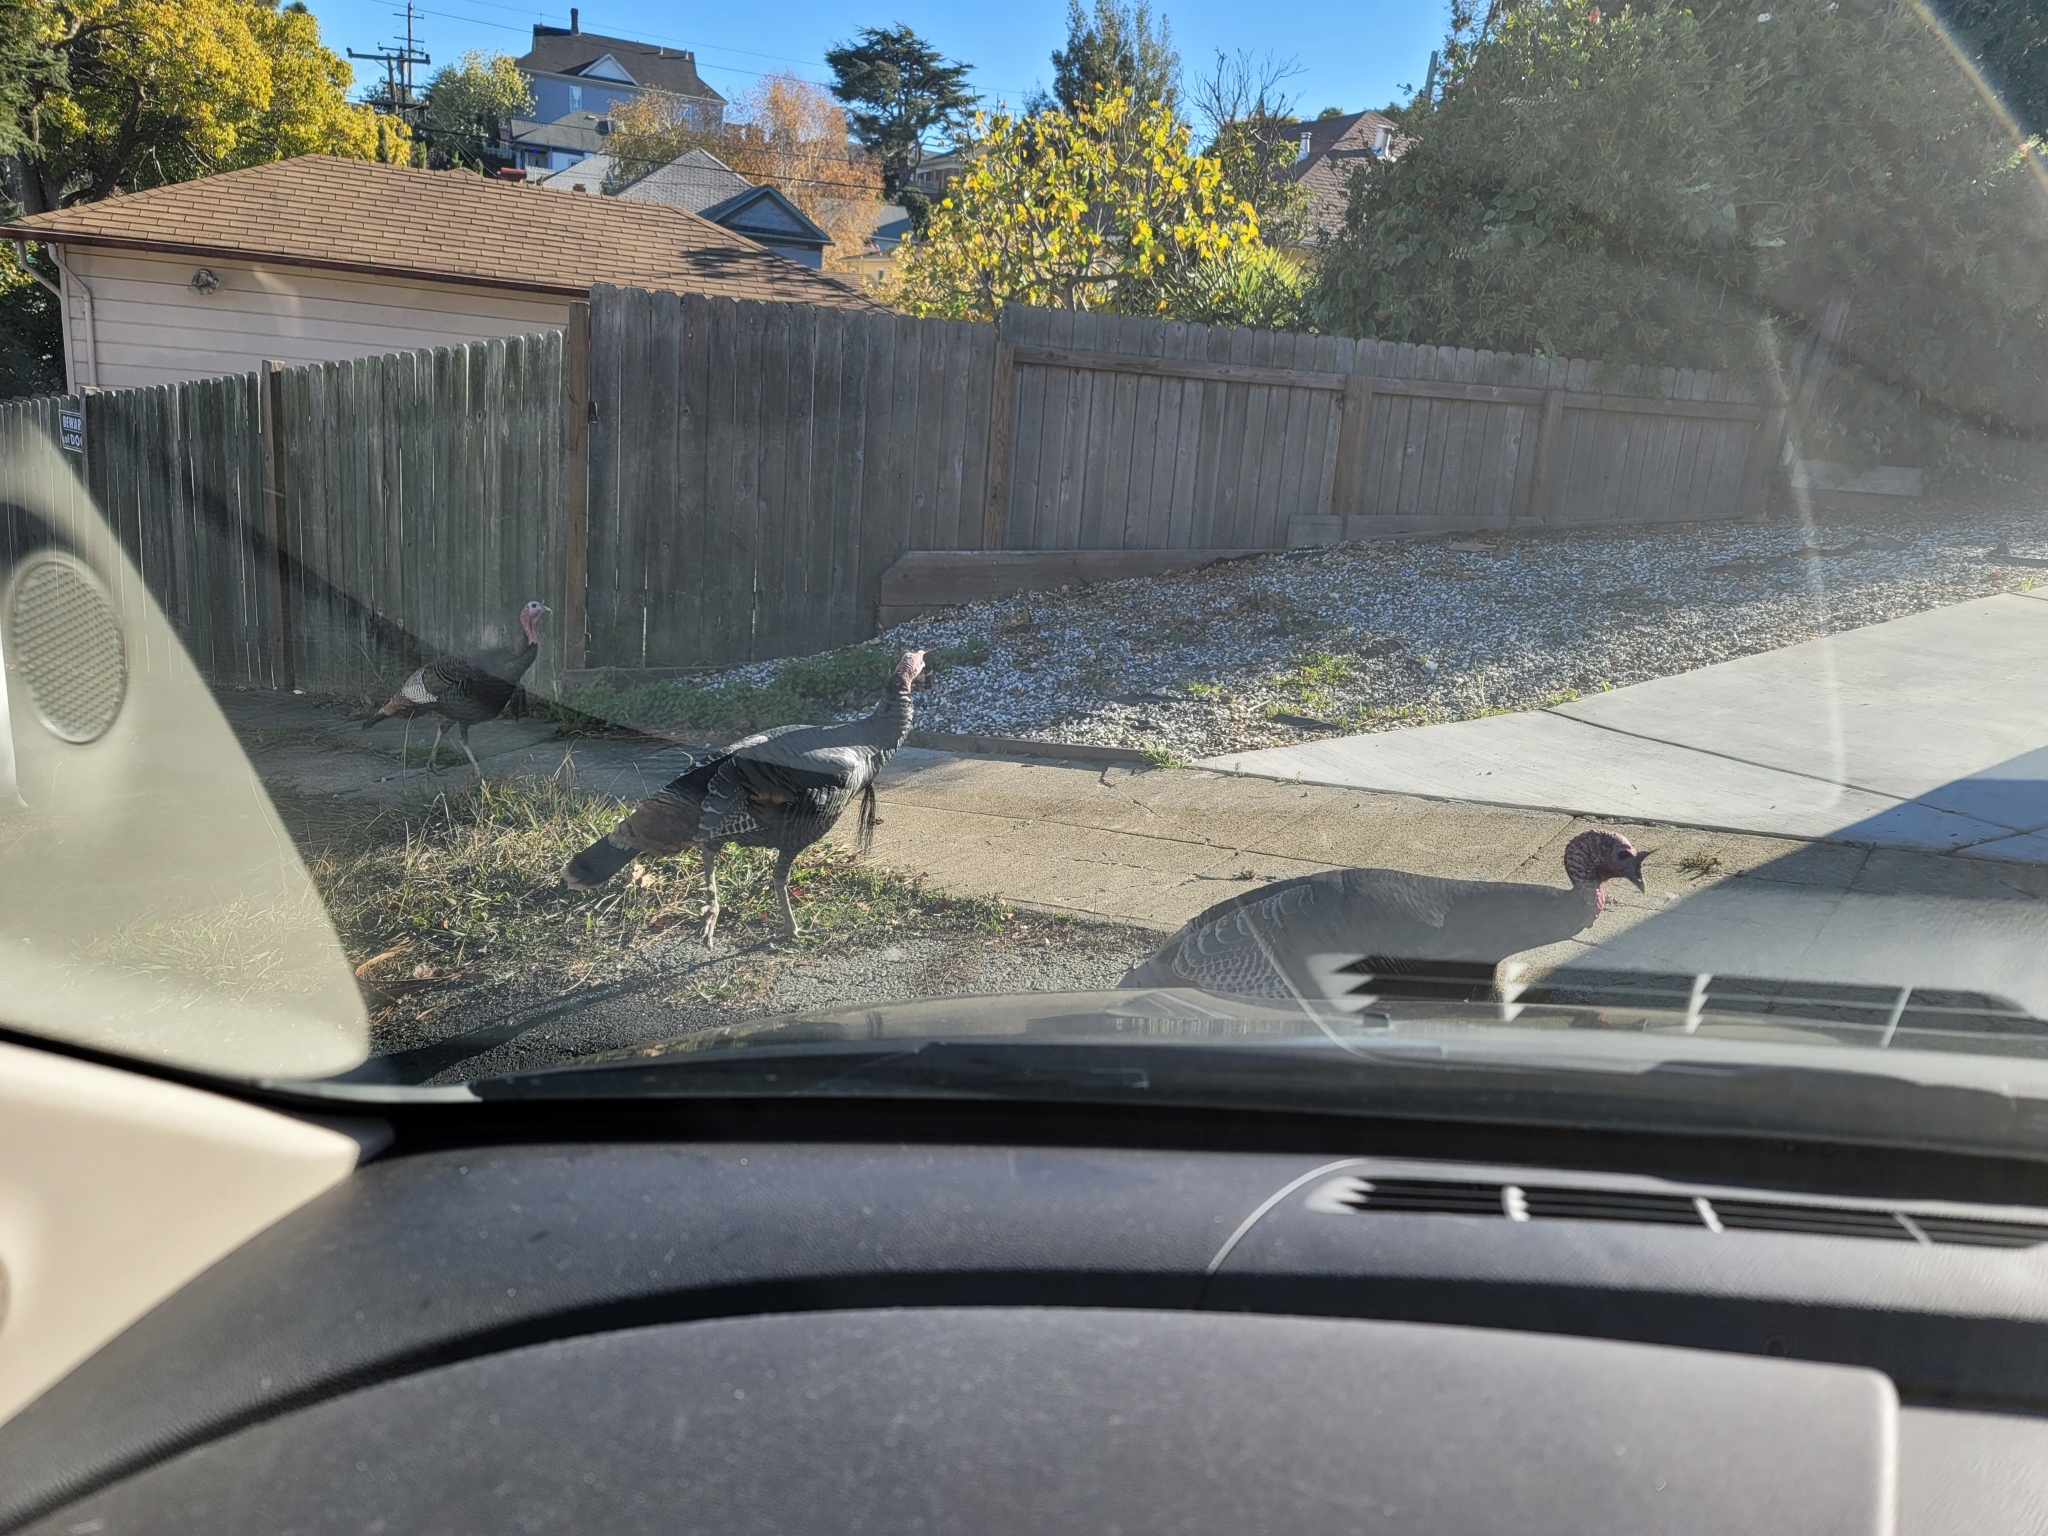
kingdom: Animalia
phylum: Chordata
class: Aves
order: Galliformes
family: Phasianidae
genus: Meleagris
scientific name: Meleagris gallopavo
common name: Wild turkey
